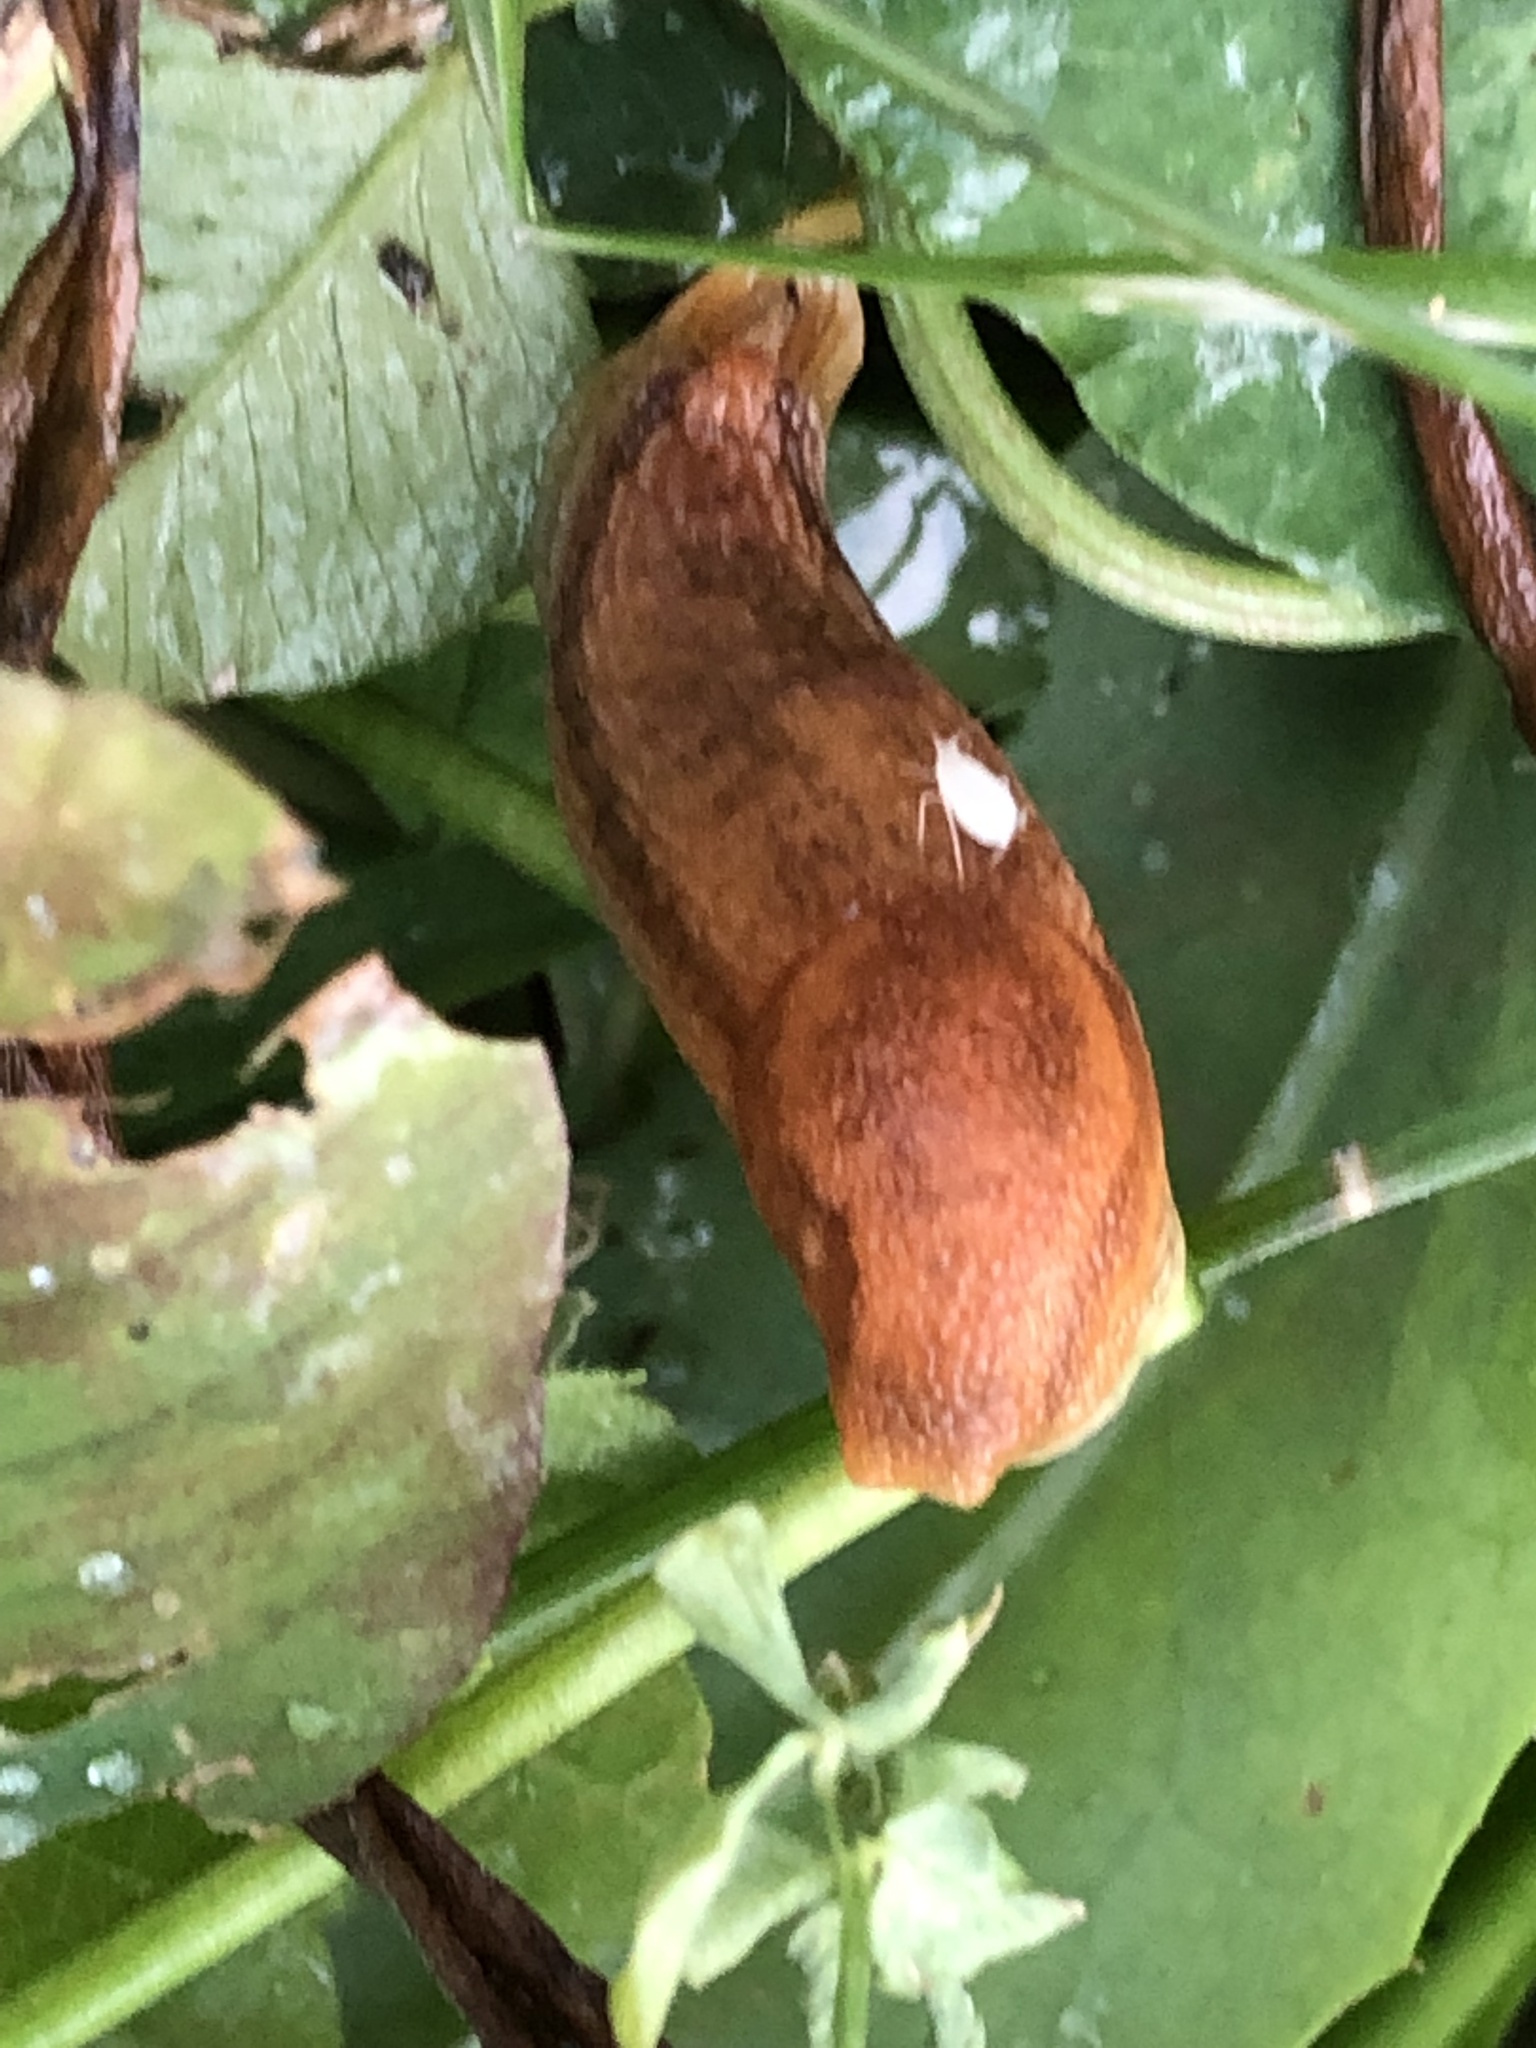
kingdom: Animalia
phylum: Mollusca
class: Gastropoda
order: Stylommatophora
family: Arionidae
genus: Arion
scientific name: Arion subfuscus
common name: Dusky arion
